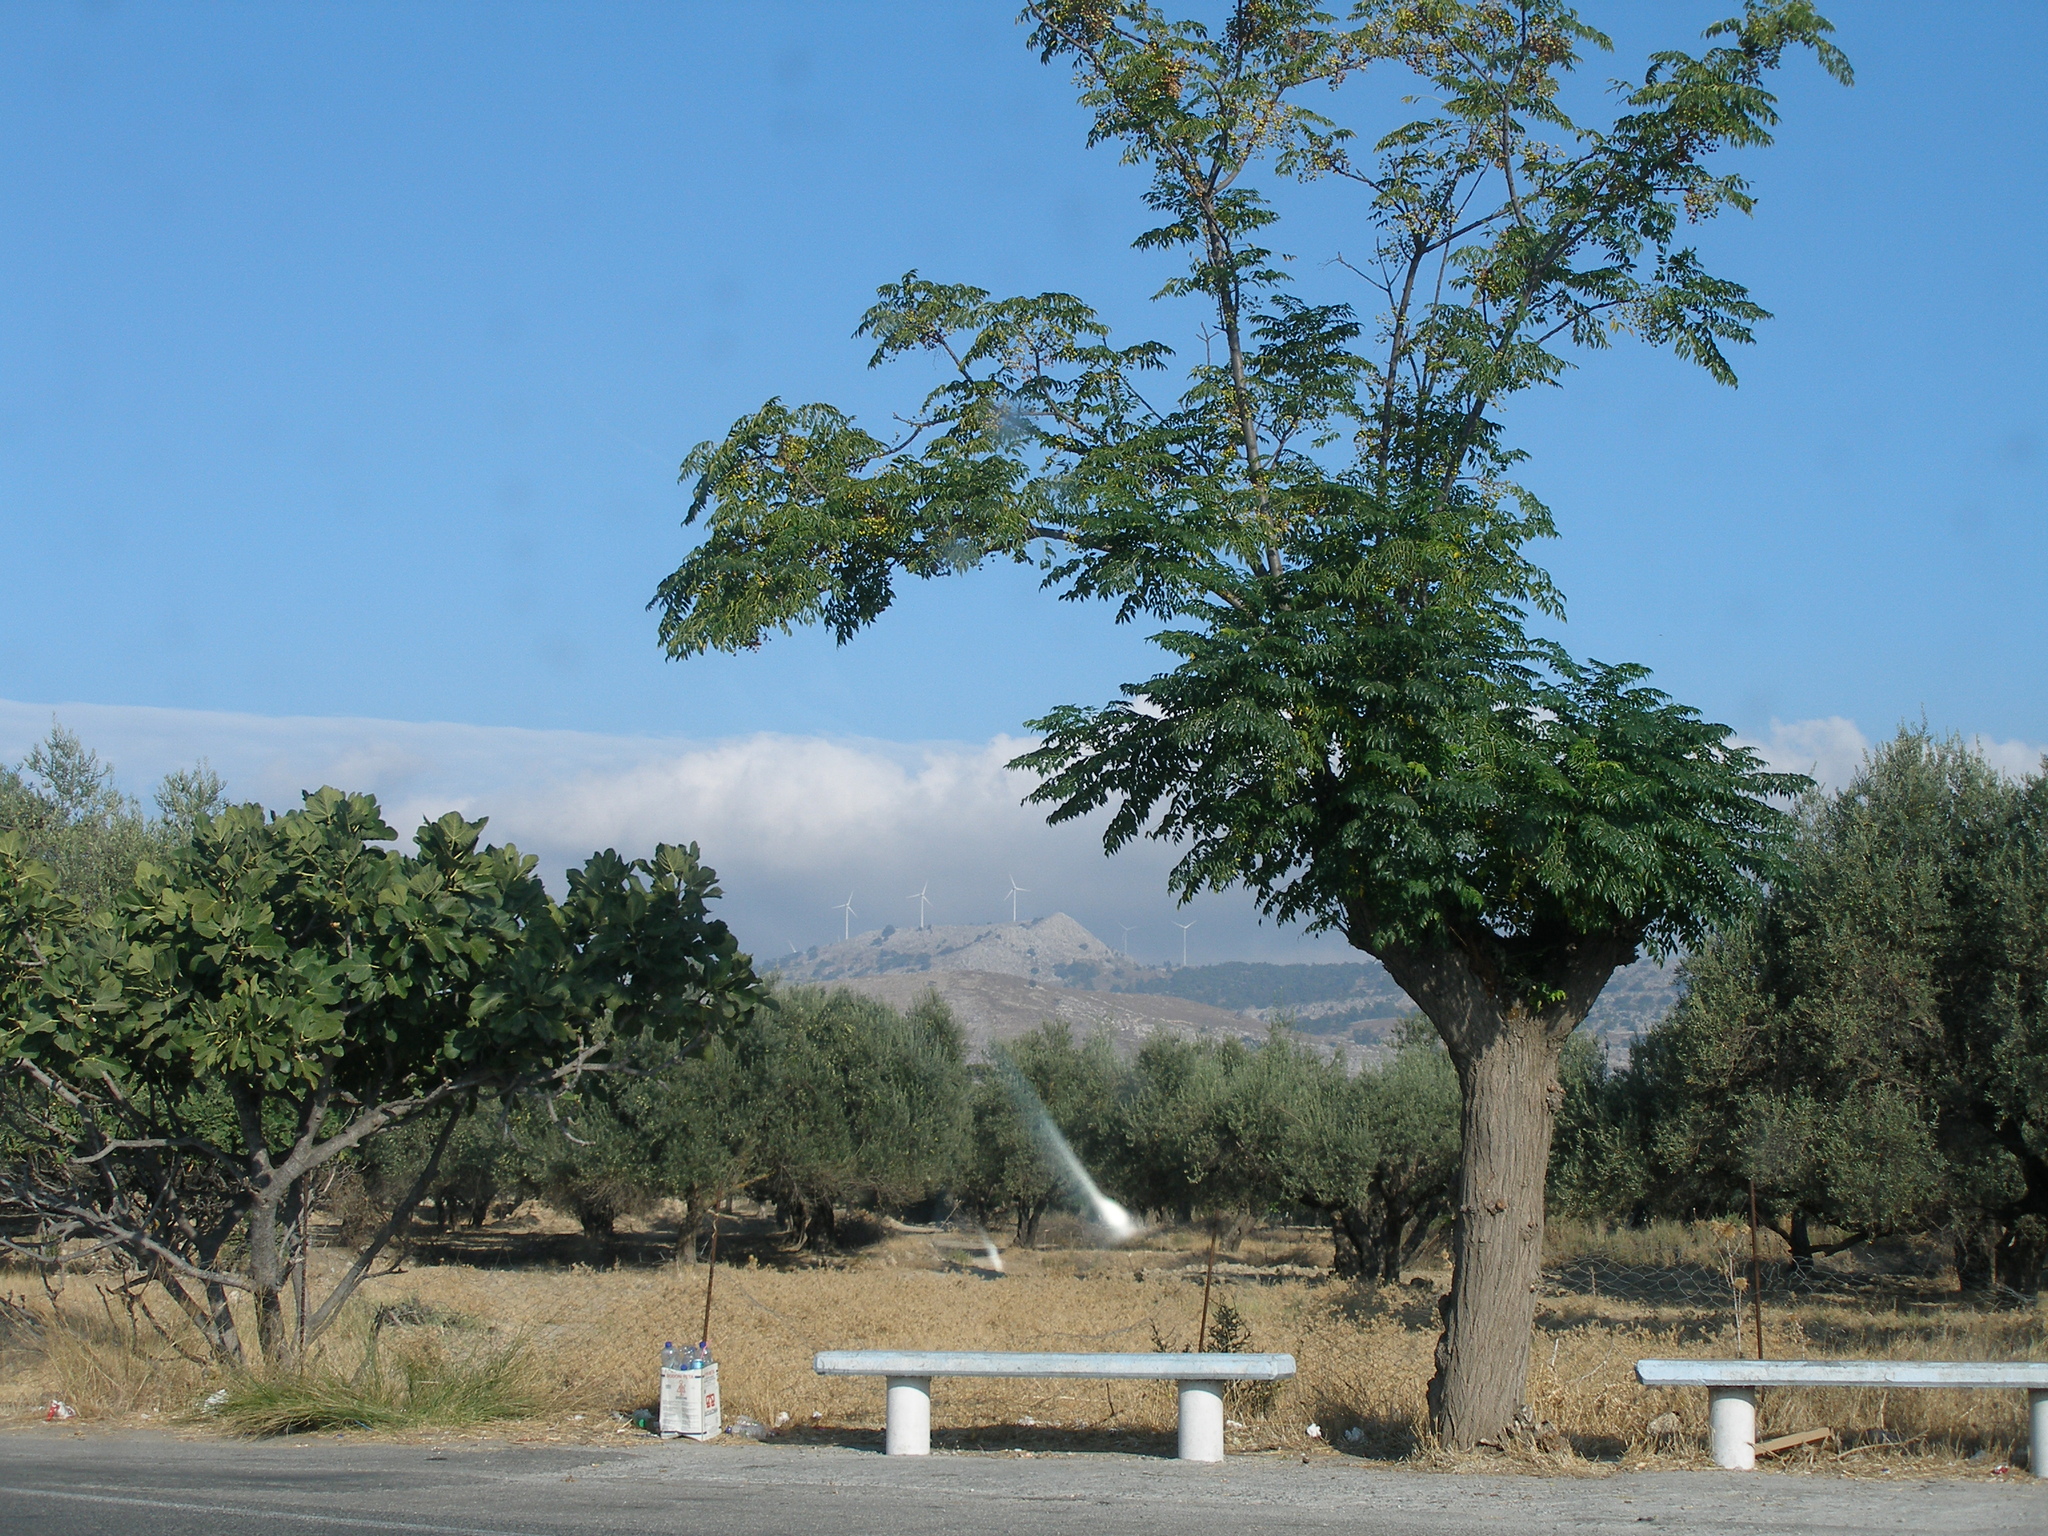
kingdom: Plantae
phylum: Tracheophyta
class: Magnoliopsida
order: Sapindales
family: Meliaceae
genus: Melia
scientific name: Melia azedarach
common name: Chinaberrytree
